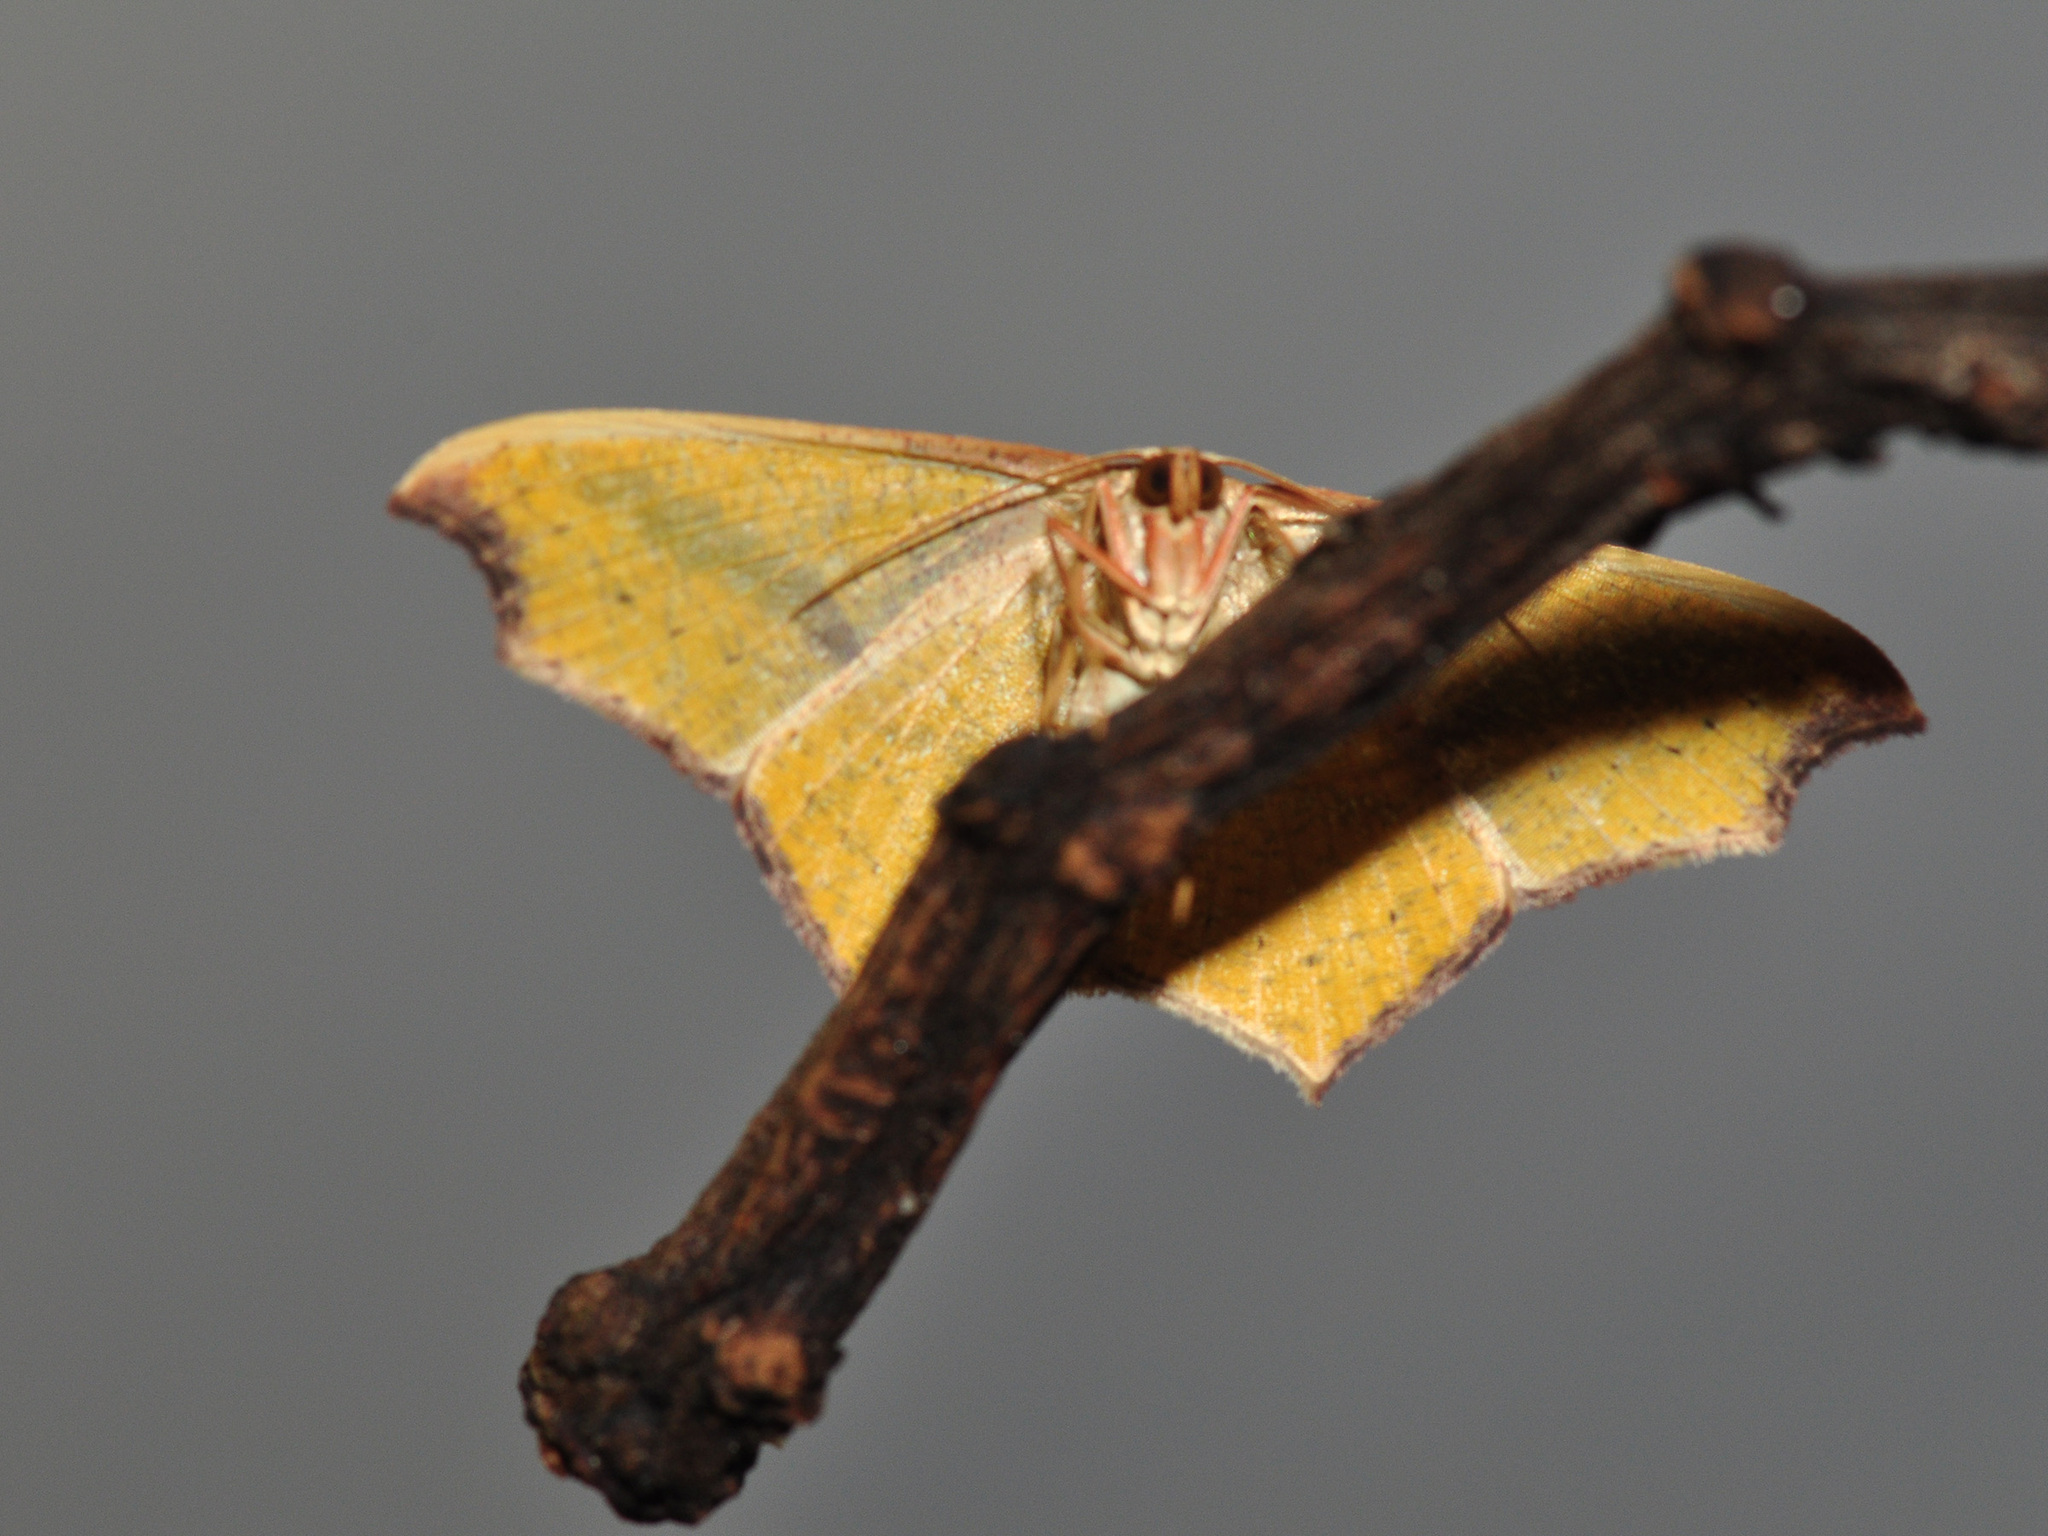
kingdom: Animalia
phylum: Arthropoda
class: Insecta
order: Lepidoptera
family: Geometridae
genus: Traminda
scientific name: Traminda aventiaria
